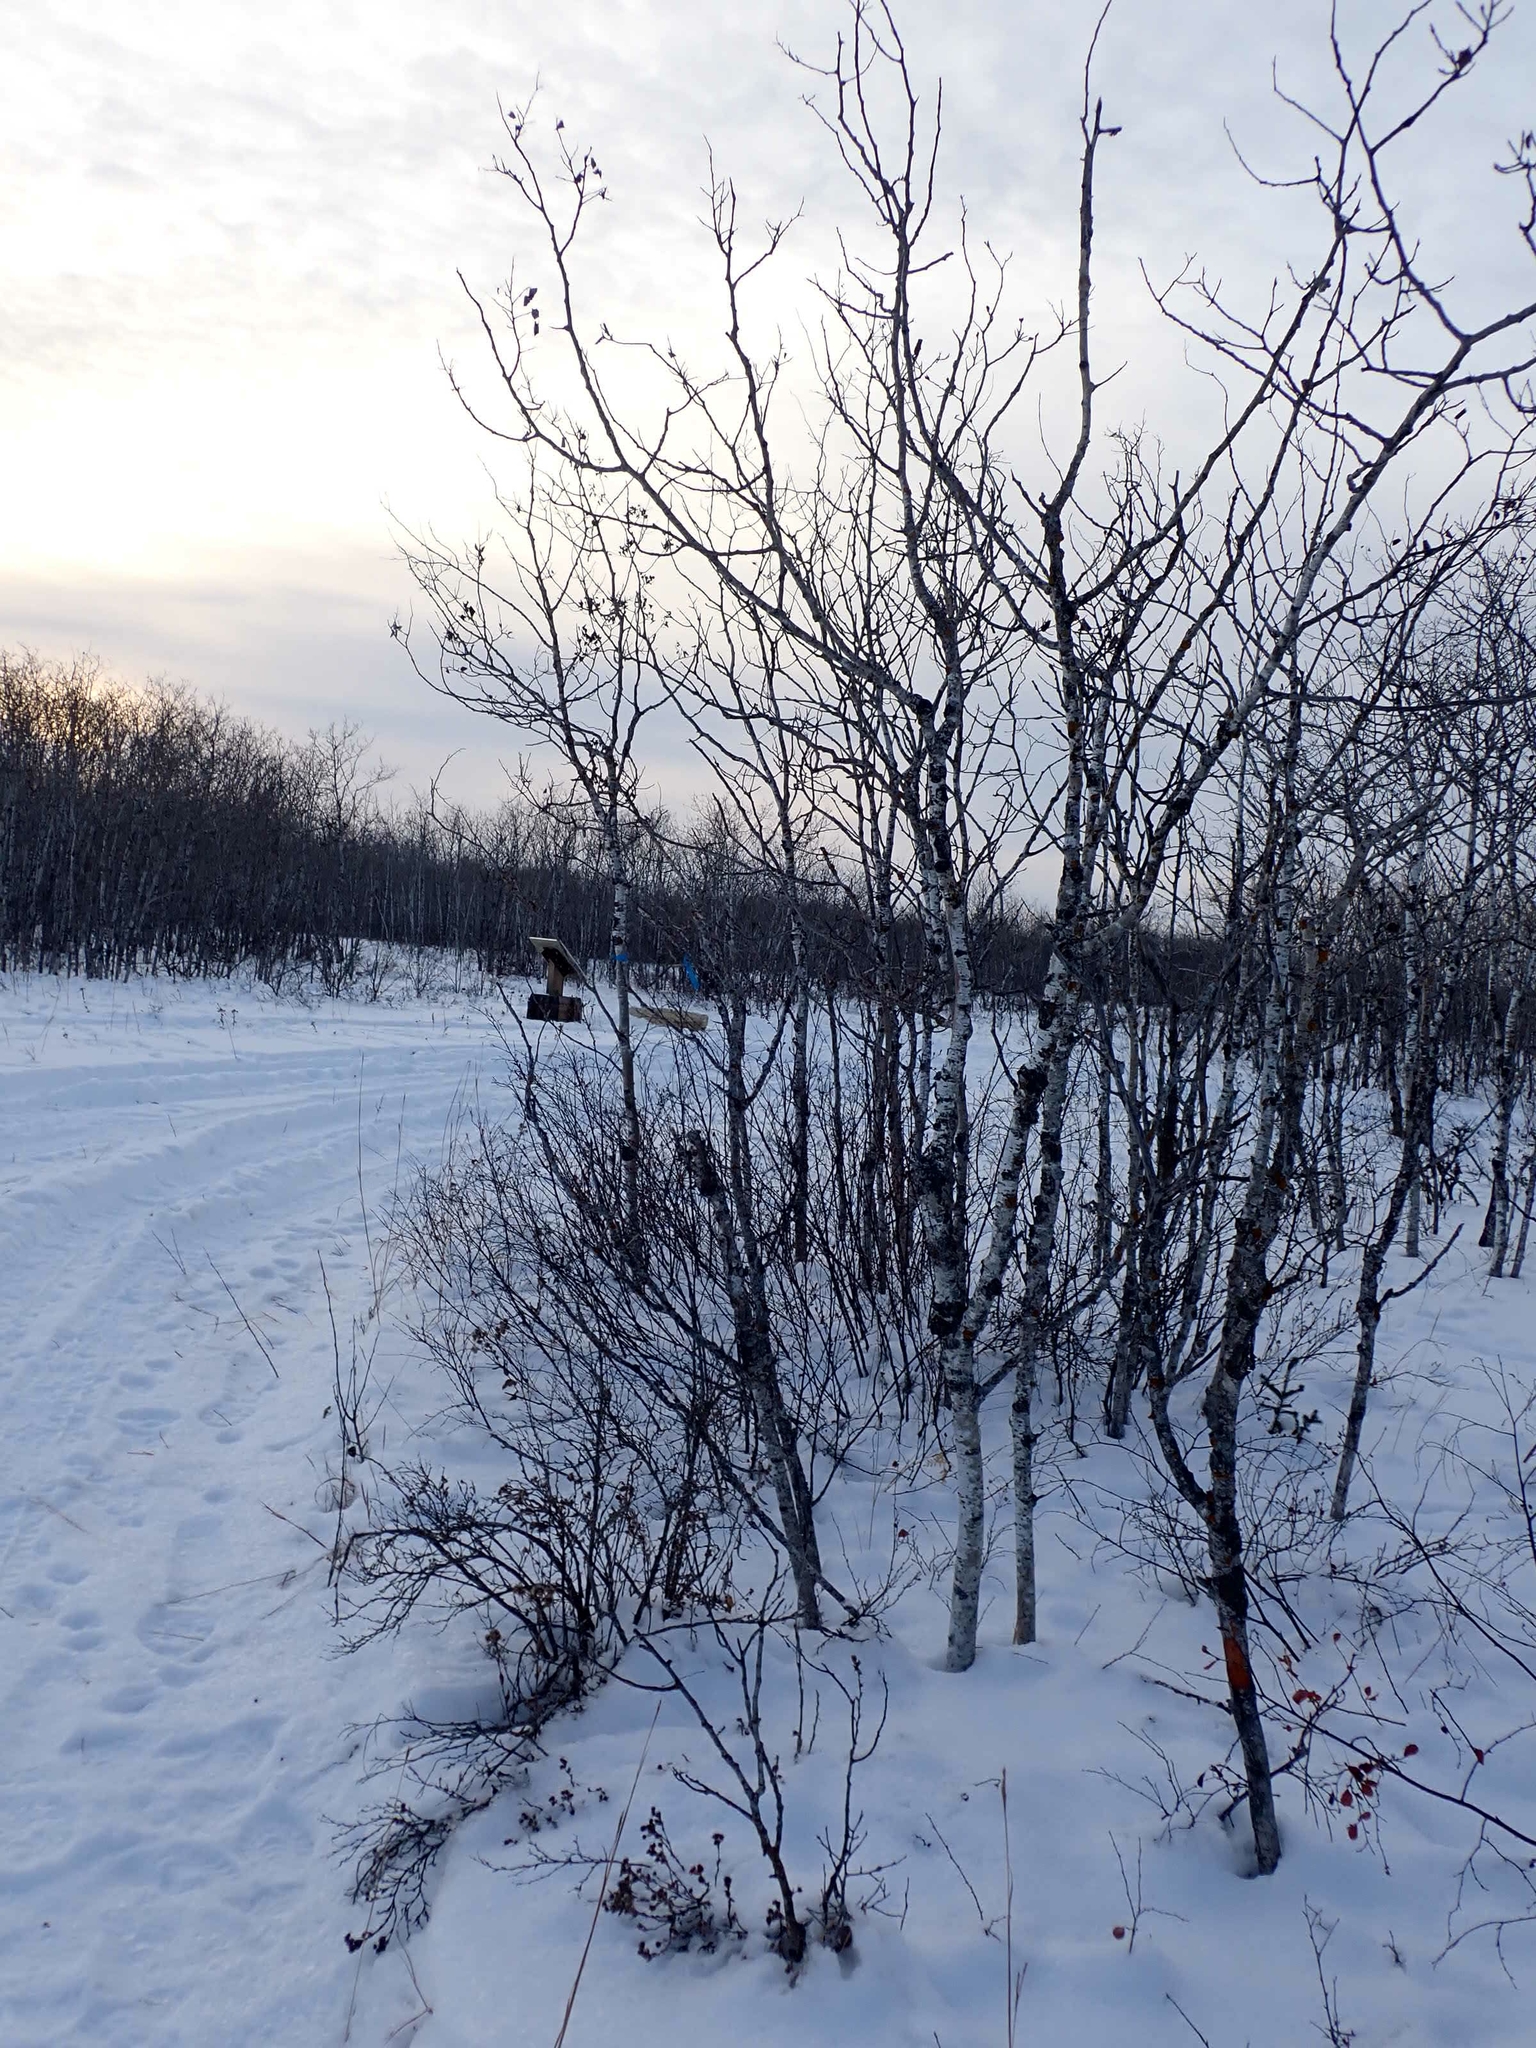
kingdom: Plantae
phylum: Tracheophyta
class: Magnoliopsida
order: Malpighiales
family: Salicaceae
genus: Populus
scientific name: Populus tremuloides
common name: Quaking aspen
